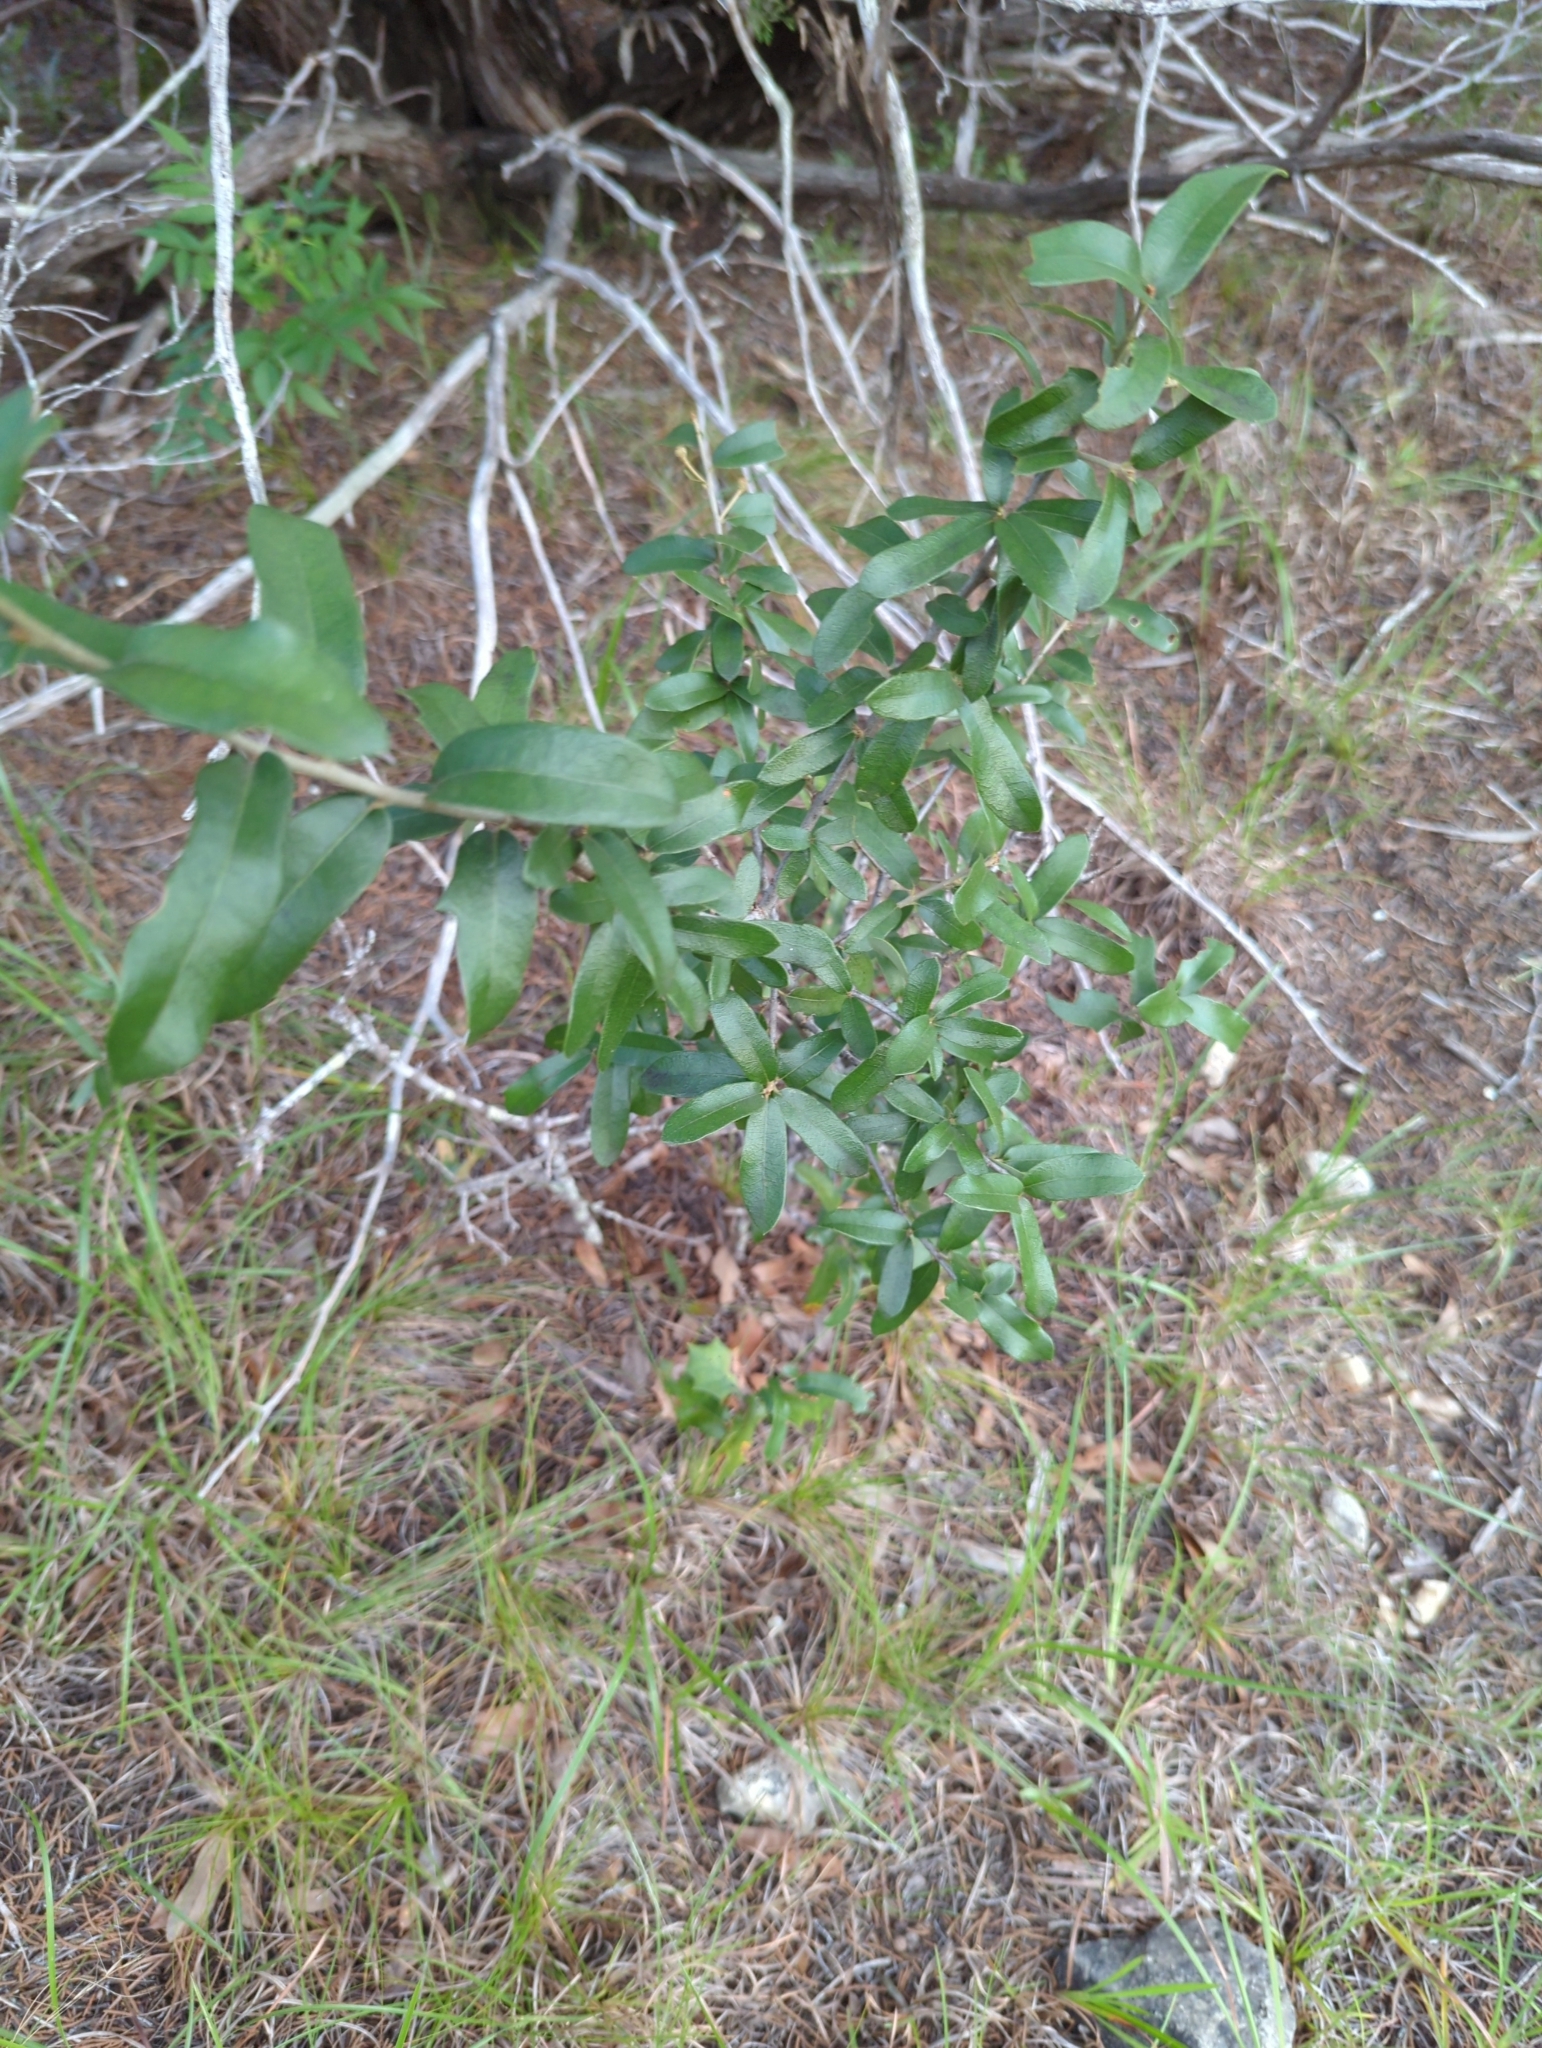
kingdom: Plantae
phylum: Tracheophyta
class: Magnoliopsida
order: Fagales
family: Fagaceae
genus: Quercus
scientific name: Quercus fusiformis
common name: Texas live oak
